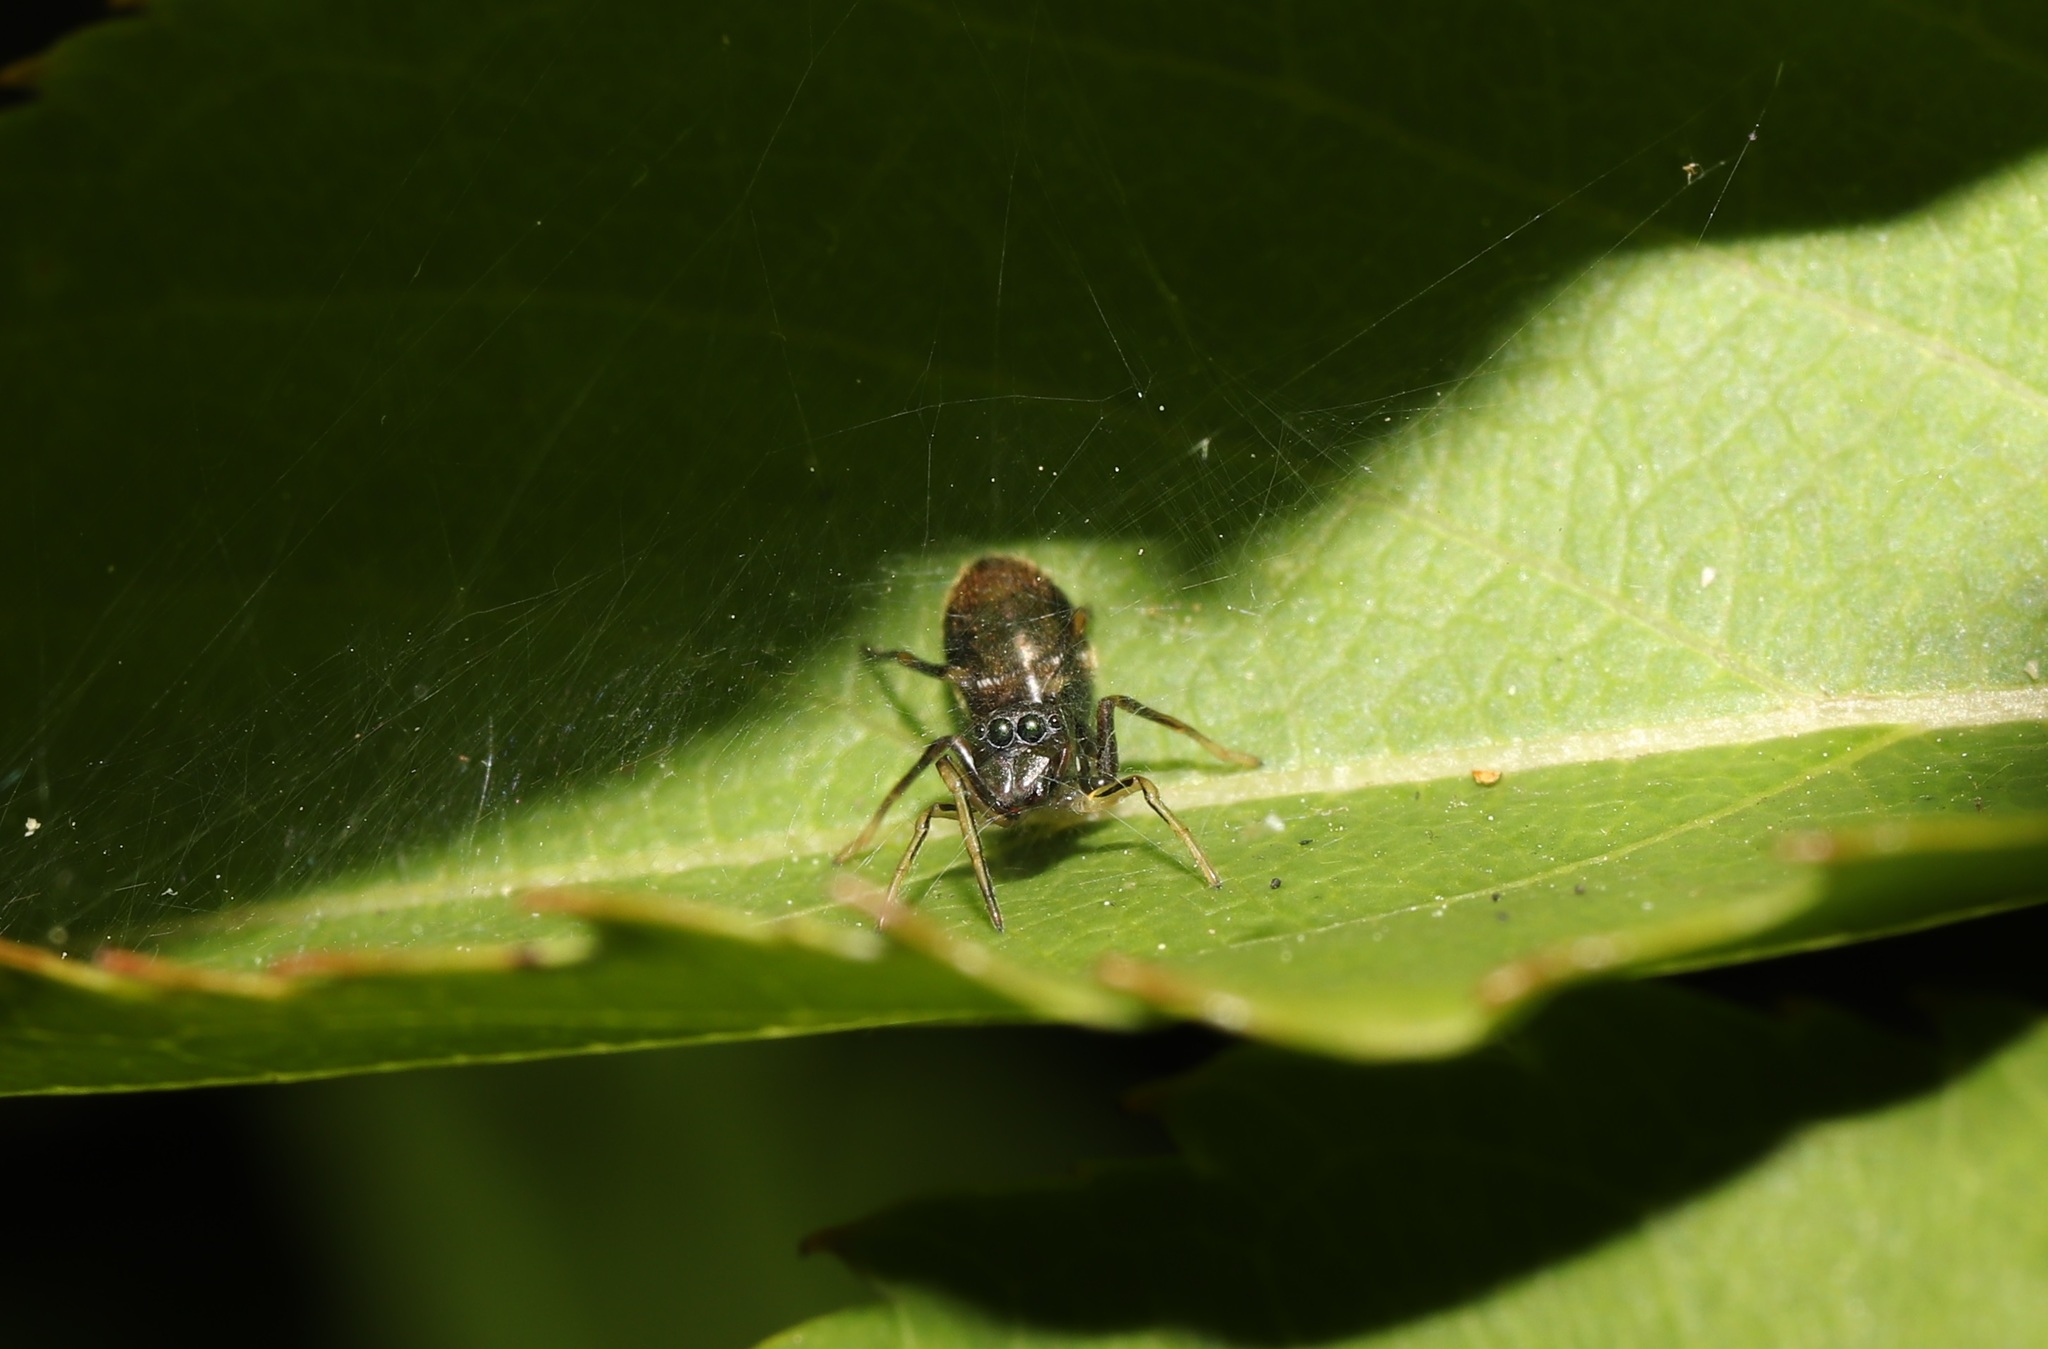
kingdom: Animalia
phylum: Arthropoda
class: Arachnida
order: Araneae
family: Salticidae
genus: Myrmarachne
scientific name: Myrmarachne japonica
